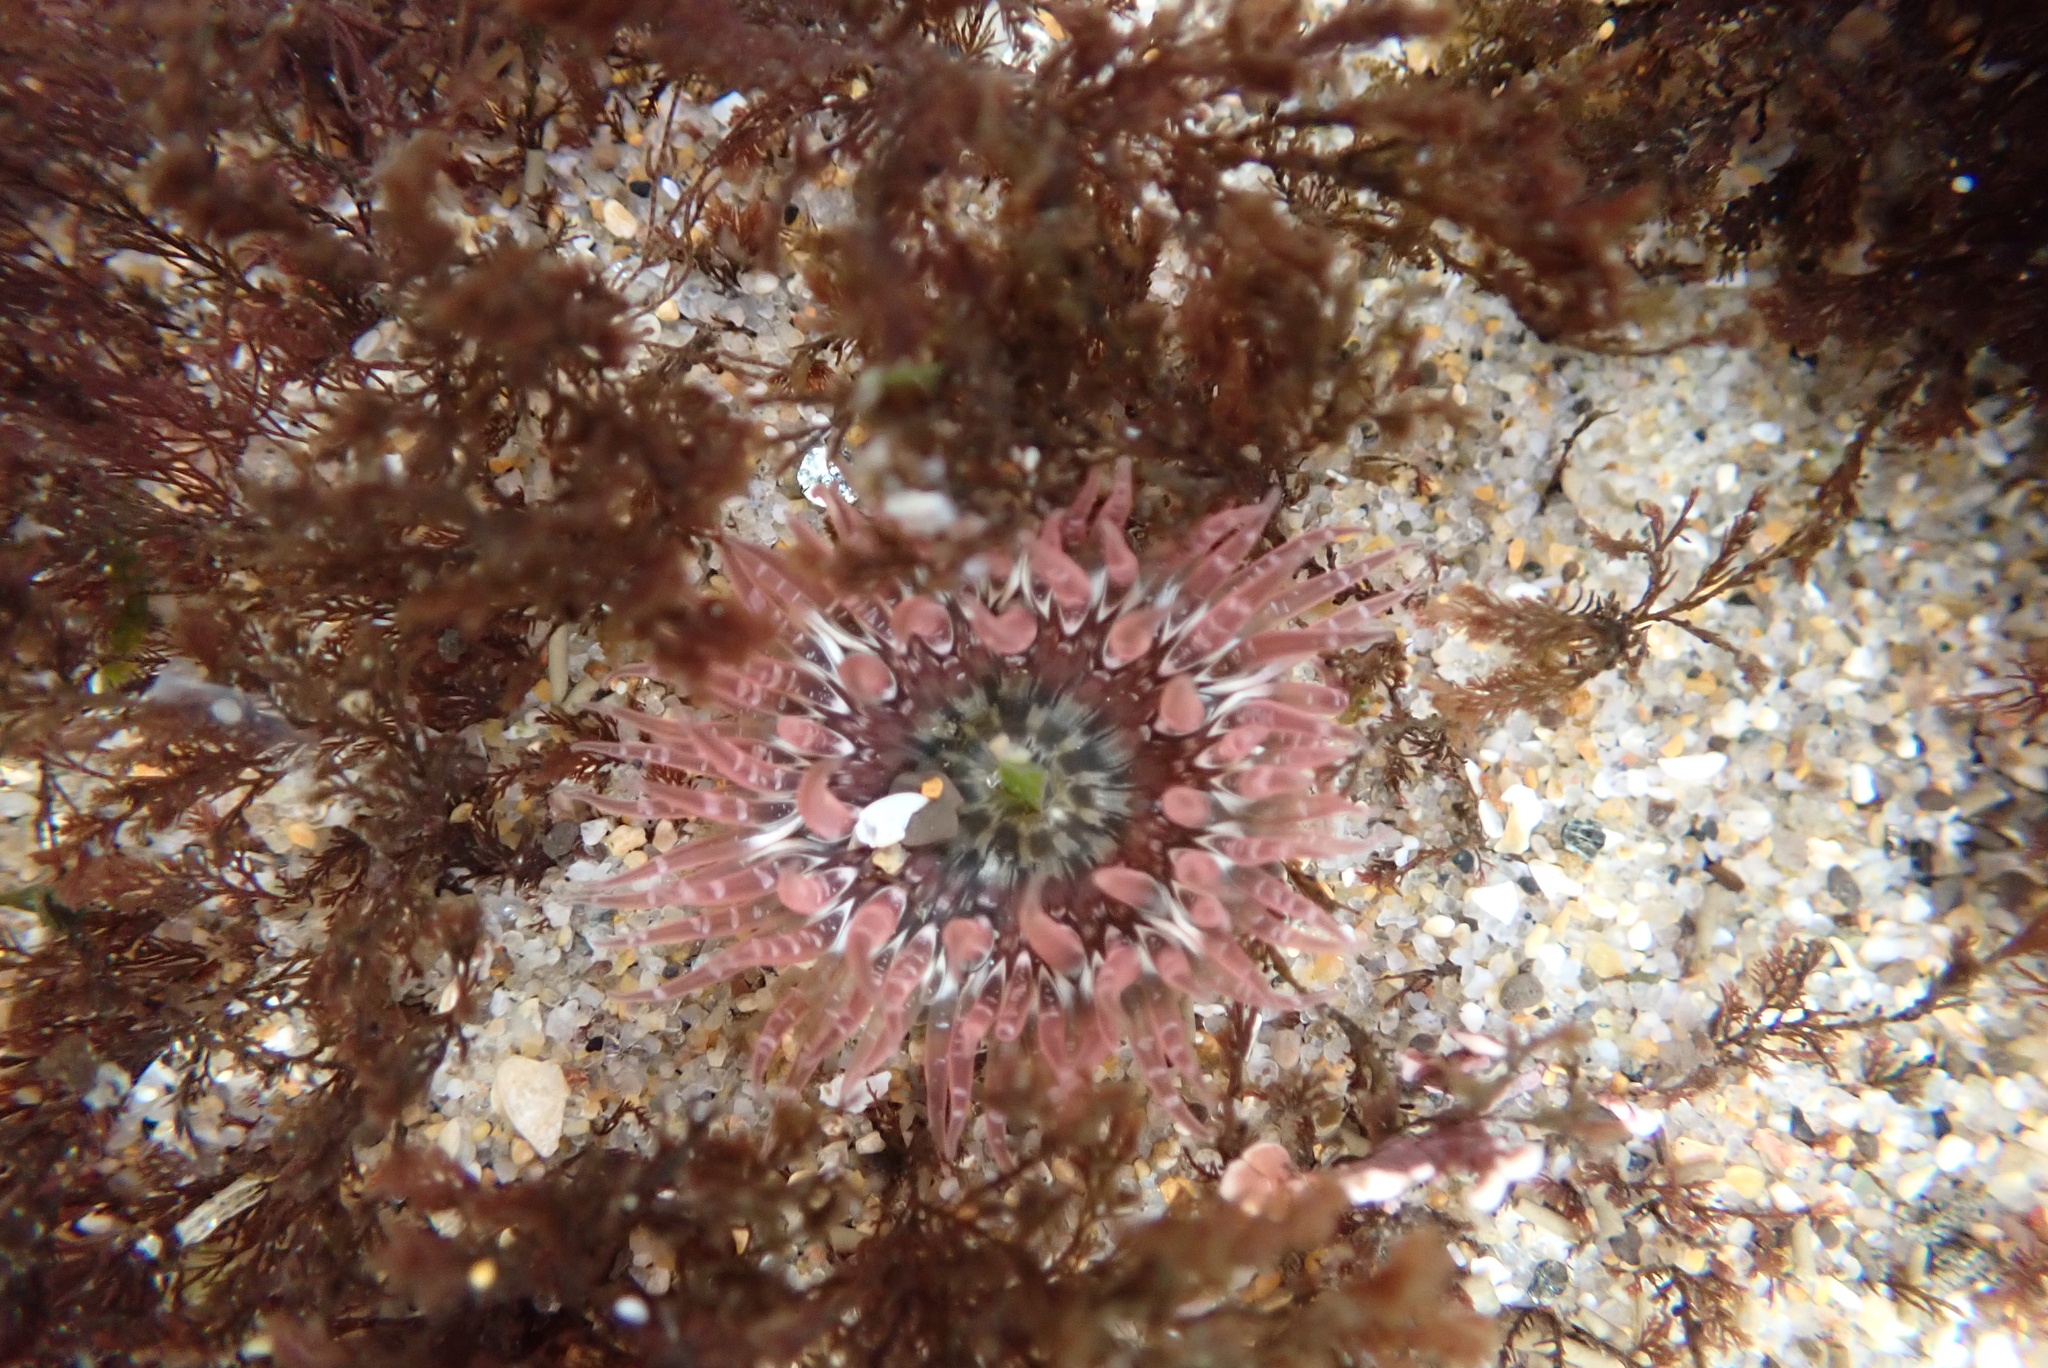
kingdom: Animalia
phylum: Cnidaria
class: Anthozoa
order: Actiniaria
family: Actiniidae
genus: Anthopleura
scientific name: Anthopleura artemisia
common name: Buried sea anemone
